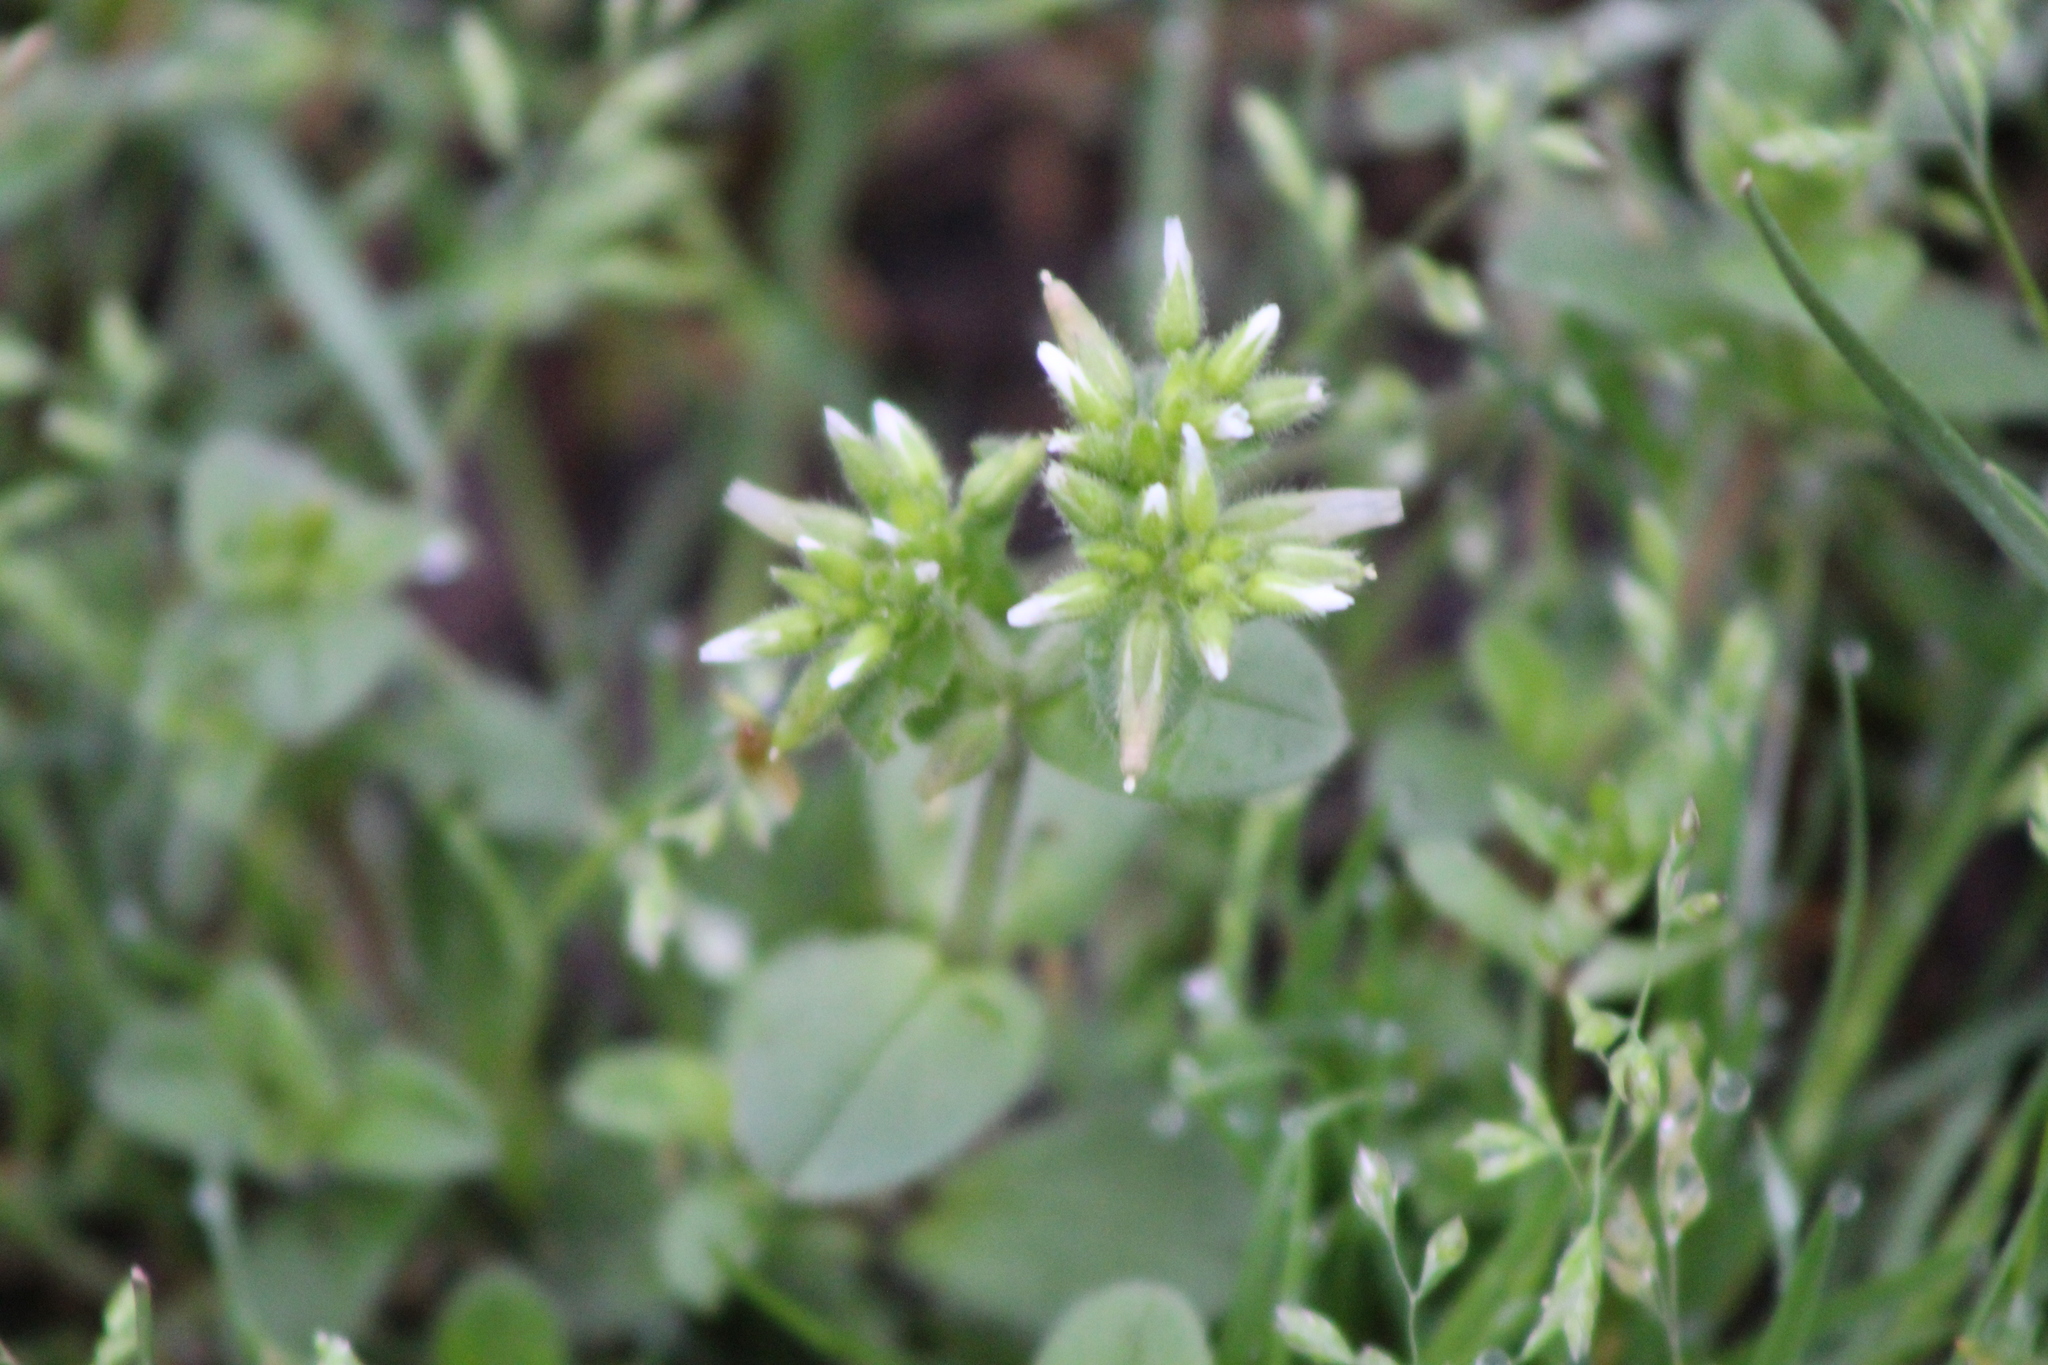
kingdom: Plantae
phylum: Tracheophyta
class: Magnoliopsida
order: Caryophyllales
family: Caryophyllaceae
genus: Cerastium
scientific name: Cerastium glomeratum
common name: Sticky chickweed
